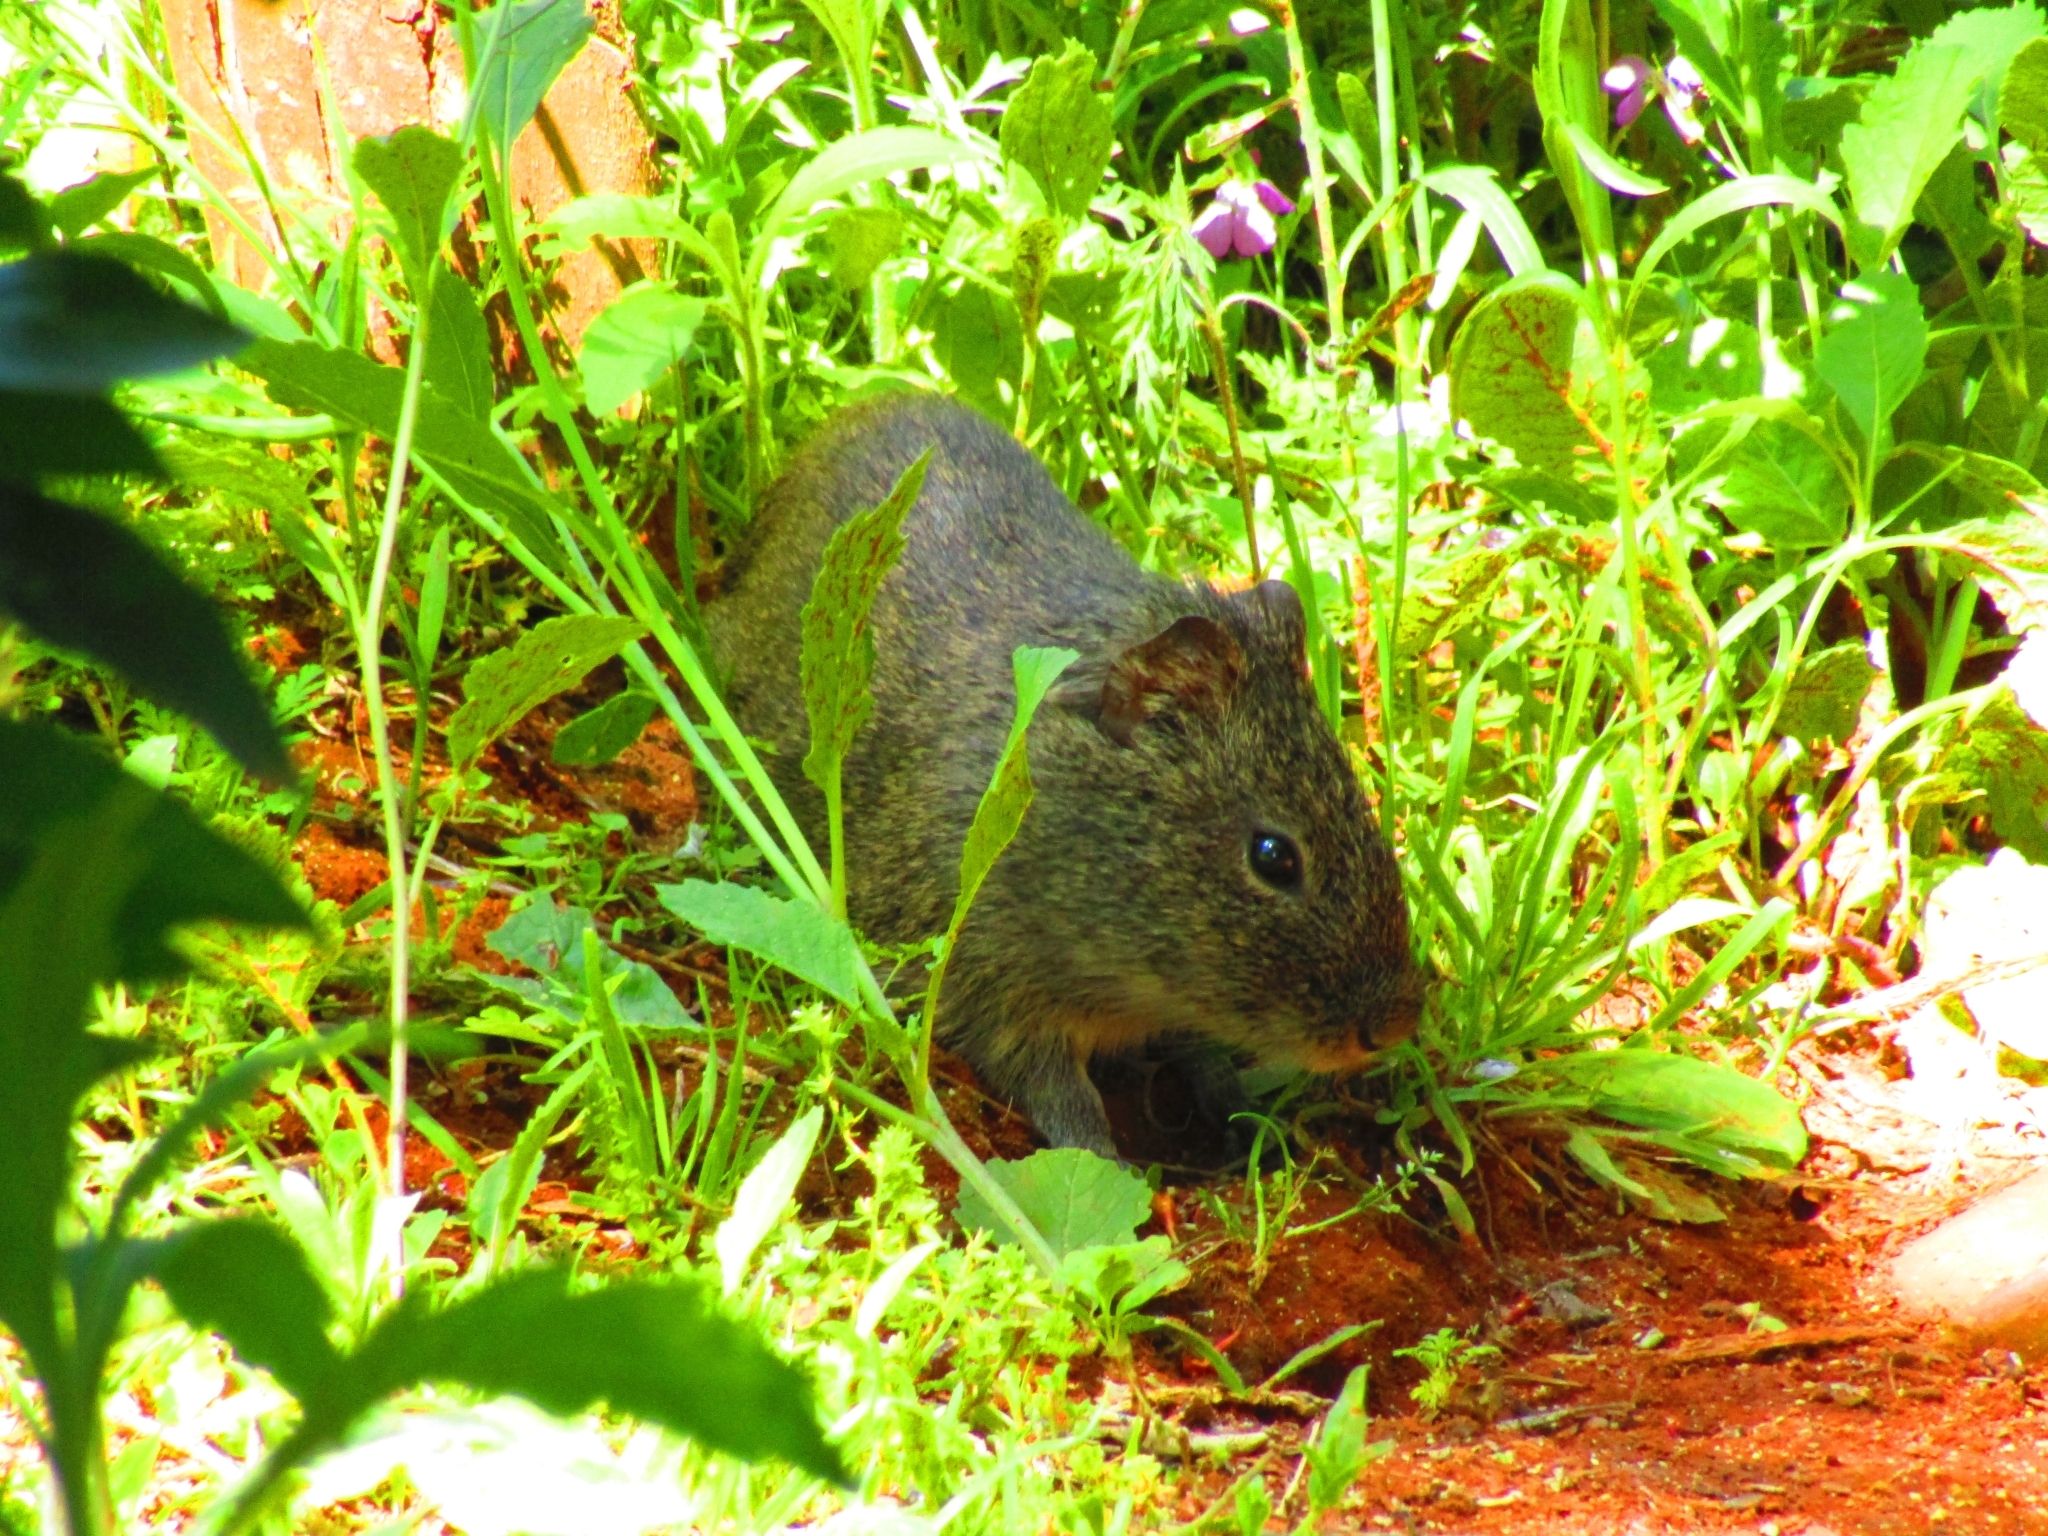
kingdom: Animalia
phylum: Chordata
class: Mammalia
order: Rodentia
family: Caviidae
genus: Cavia
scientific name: Cavia aperea
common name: Brazilian guinea pig
